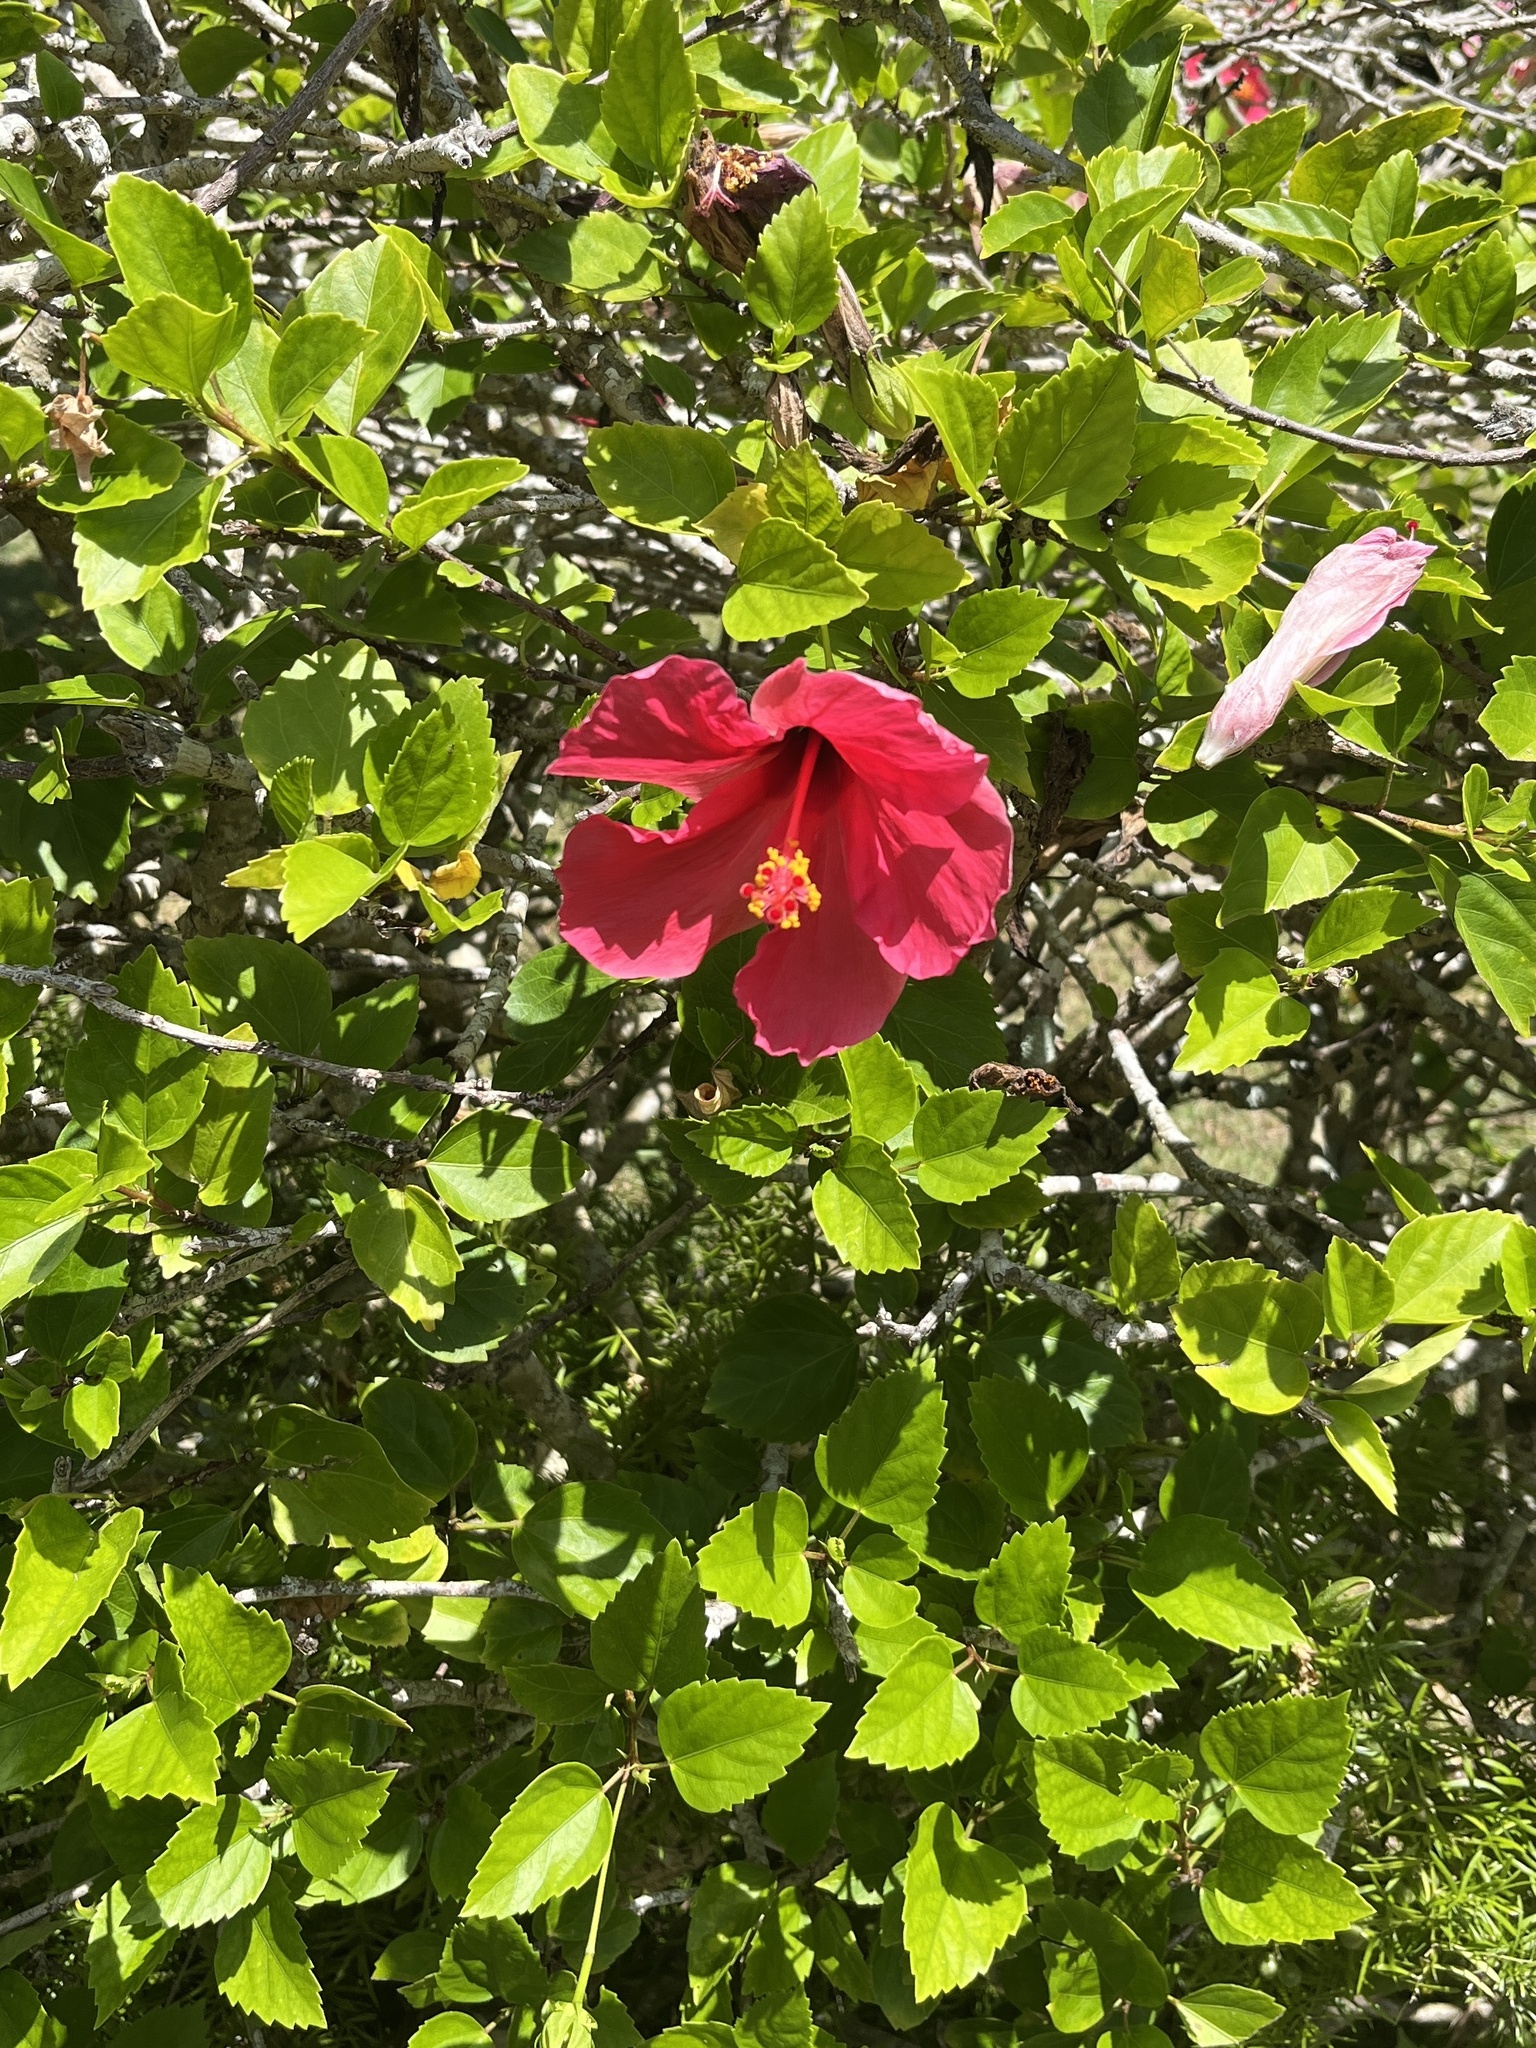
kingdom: Plantae
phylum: Tracheophyta
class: Magnoliopsida
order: Malvales
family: Malvaceae
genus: Hibiscus
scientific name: Hibiscus rosa-sinensis
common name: Hibiscus
